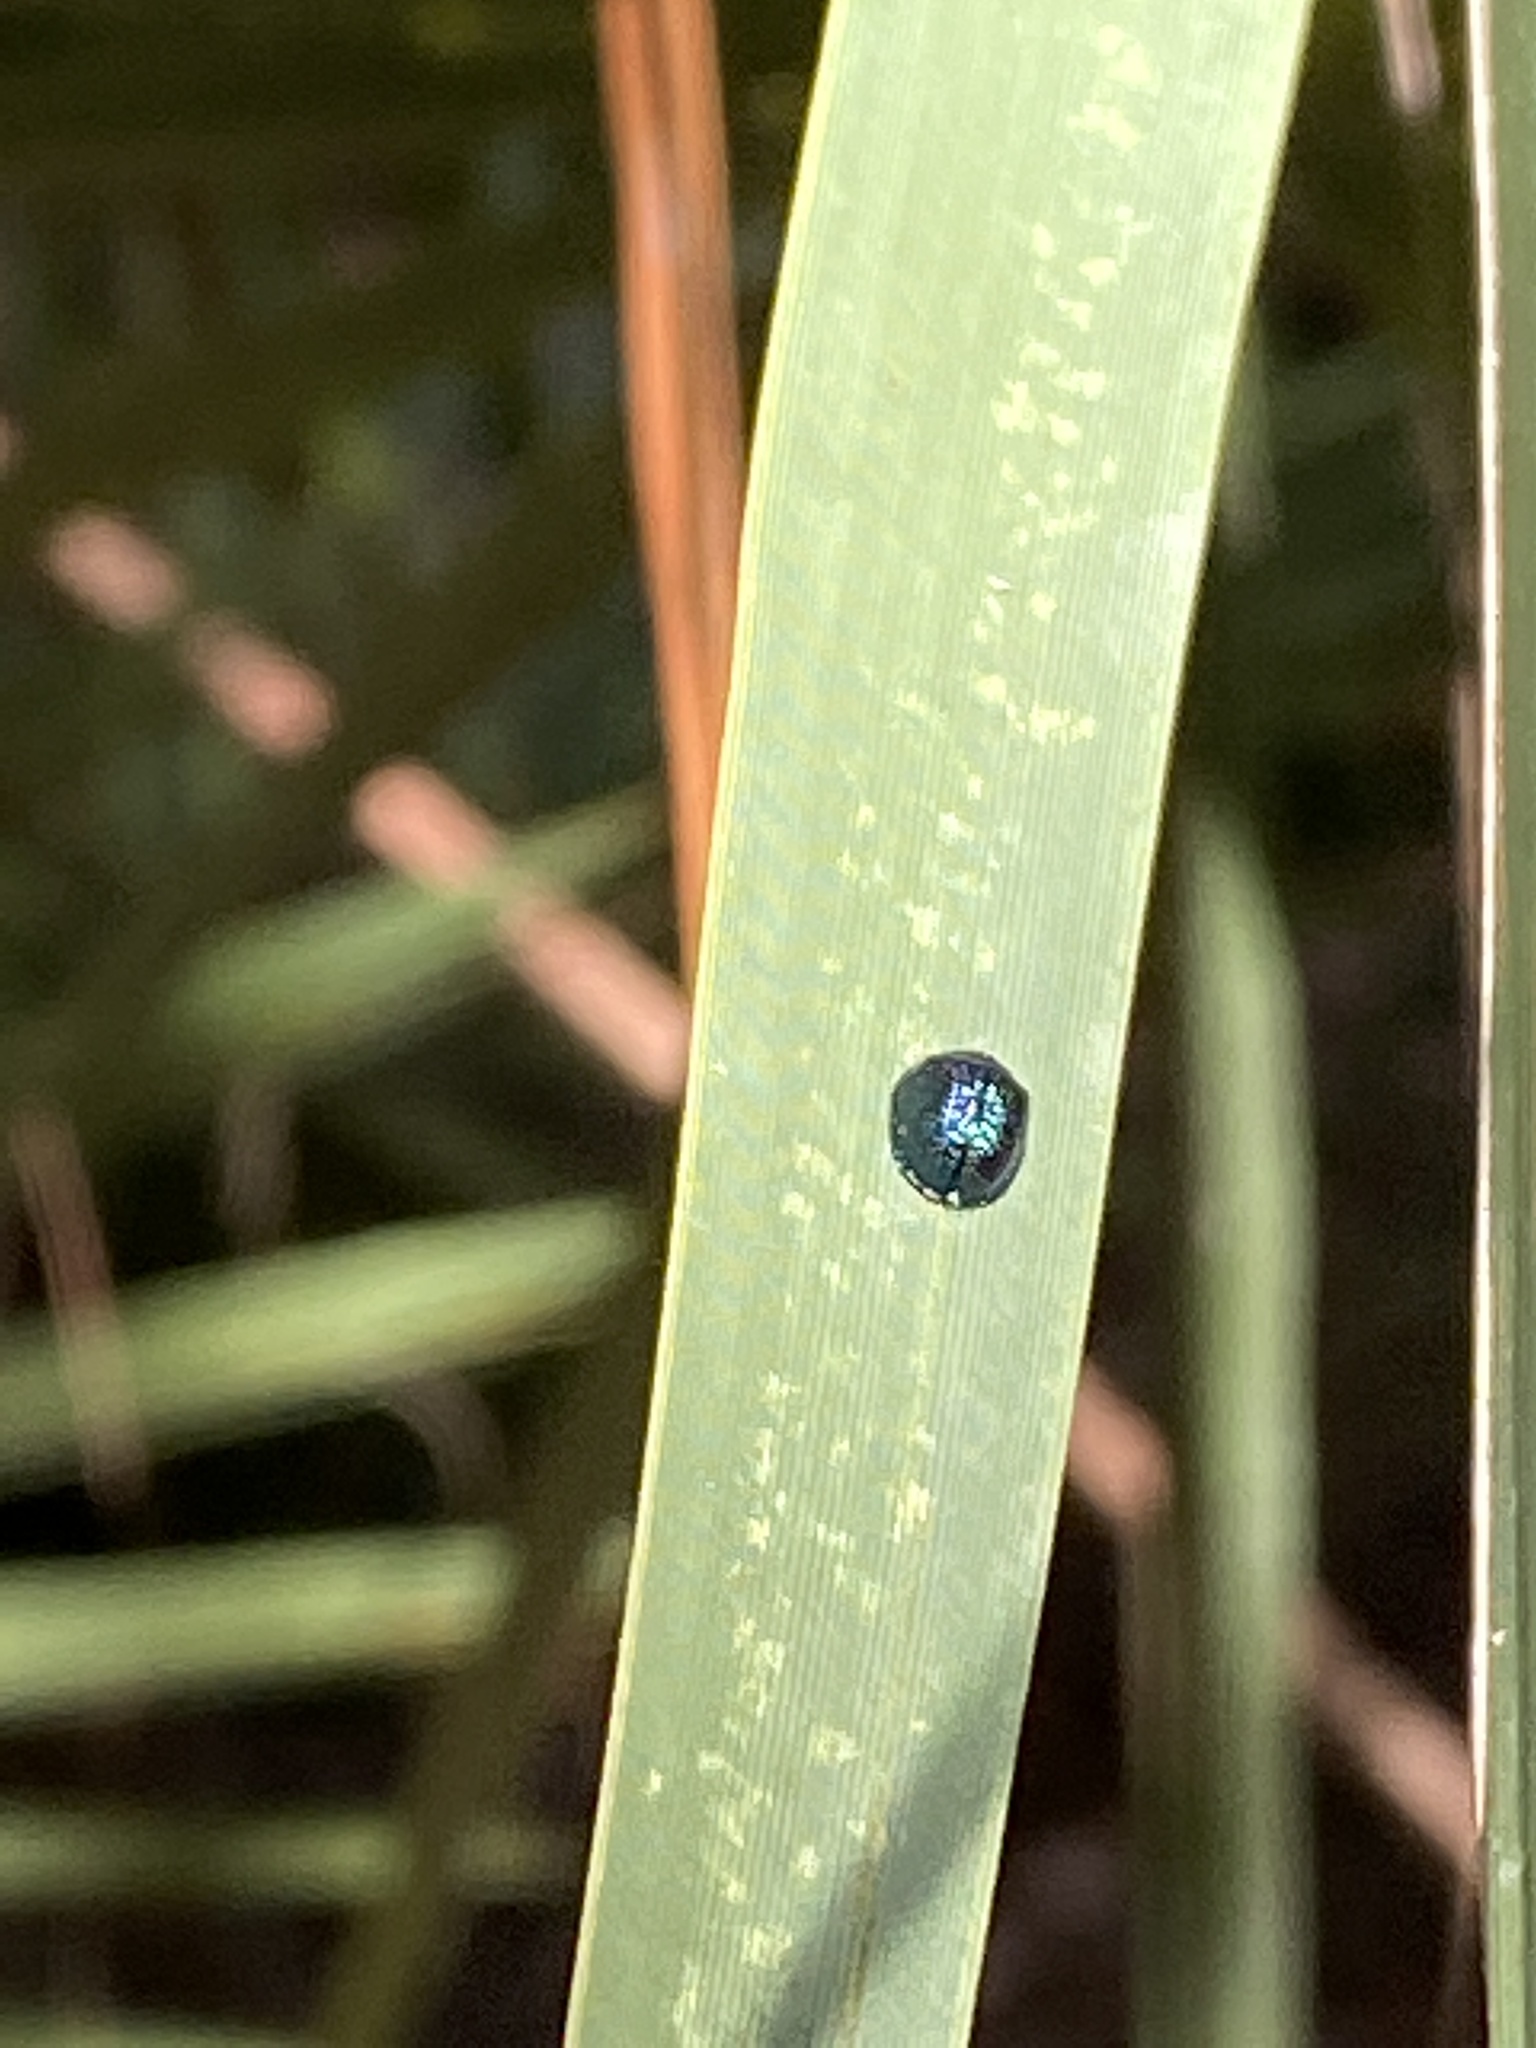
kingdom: Animalia
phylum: Arthropoda
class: Insecta
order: Coleoptera
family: Chrysomelidae
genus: Hemisphaerota
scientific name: Hemisphaerota cyanea
